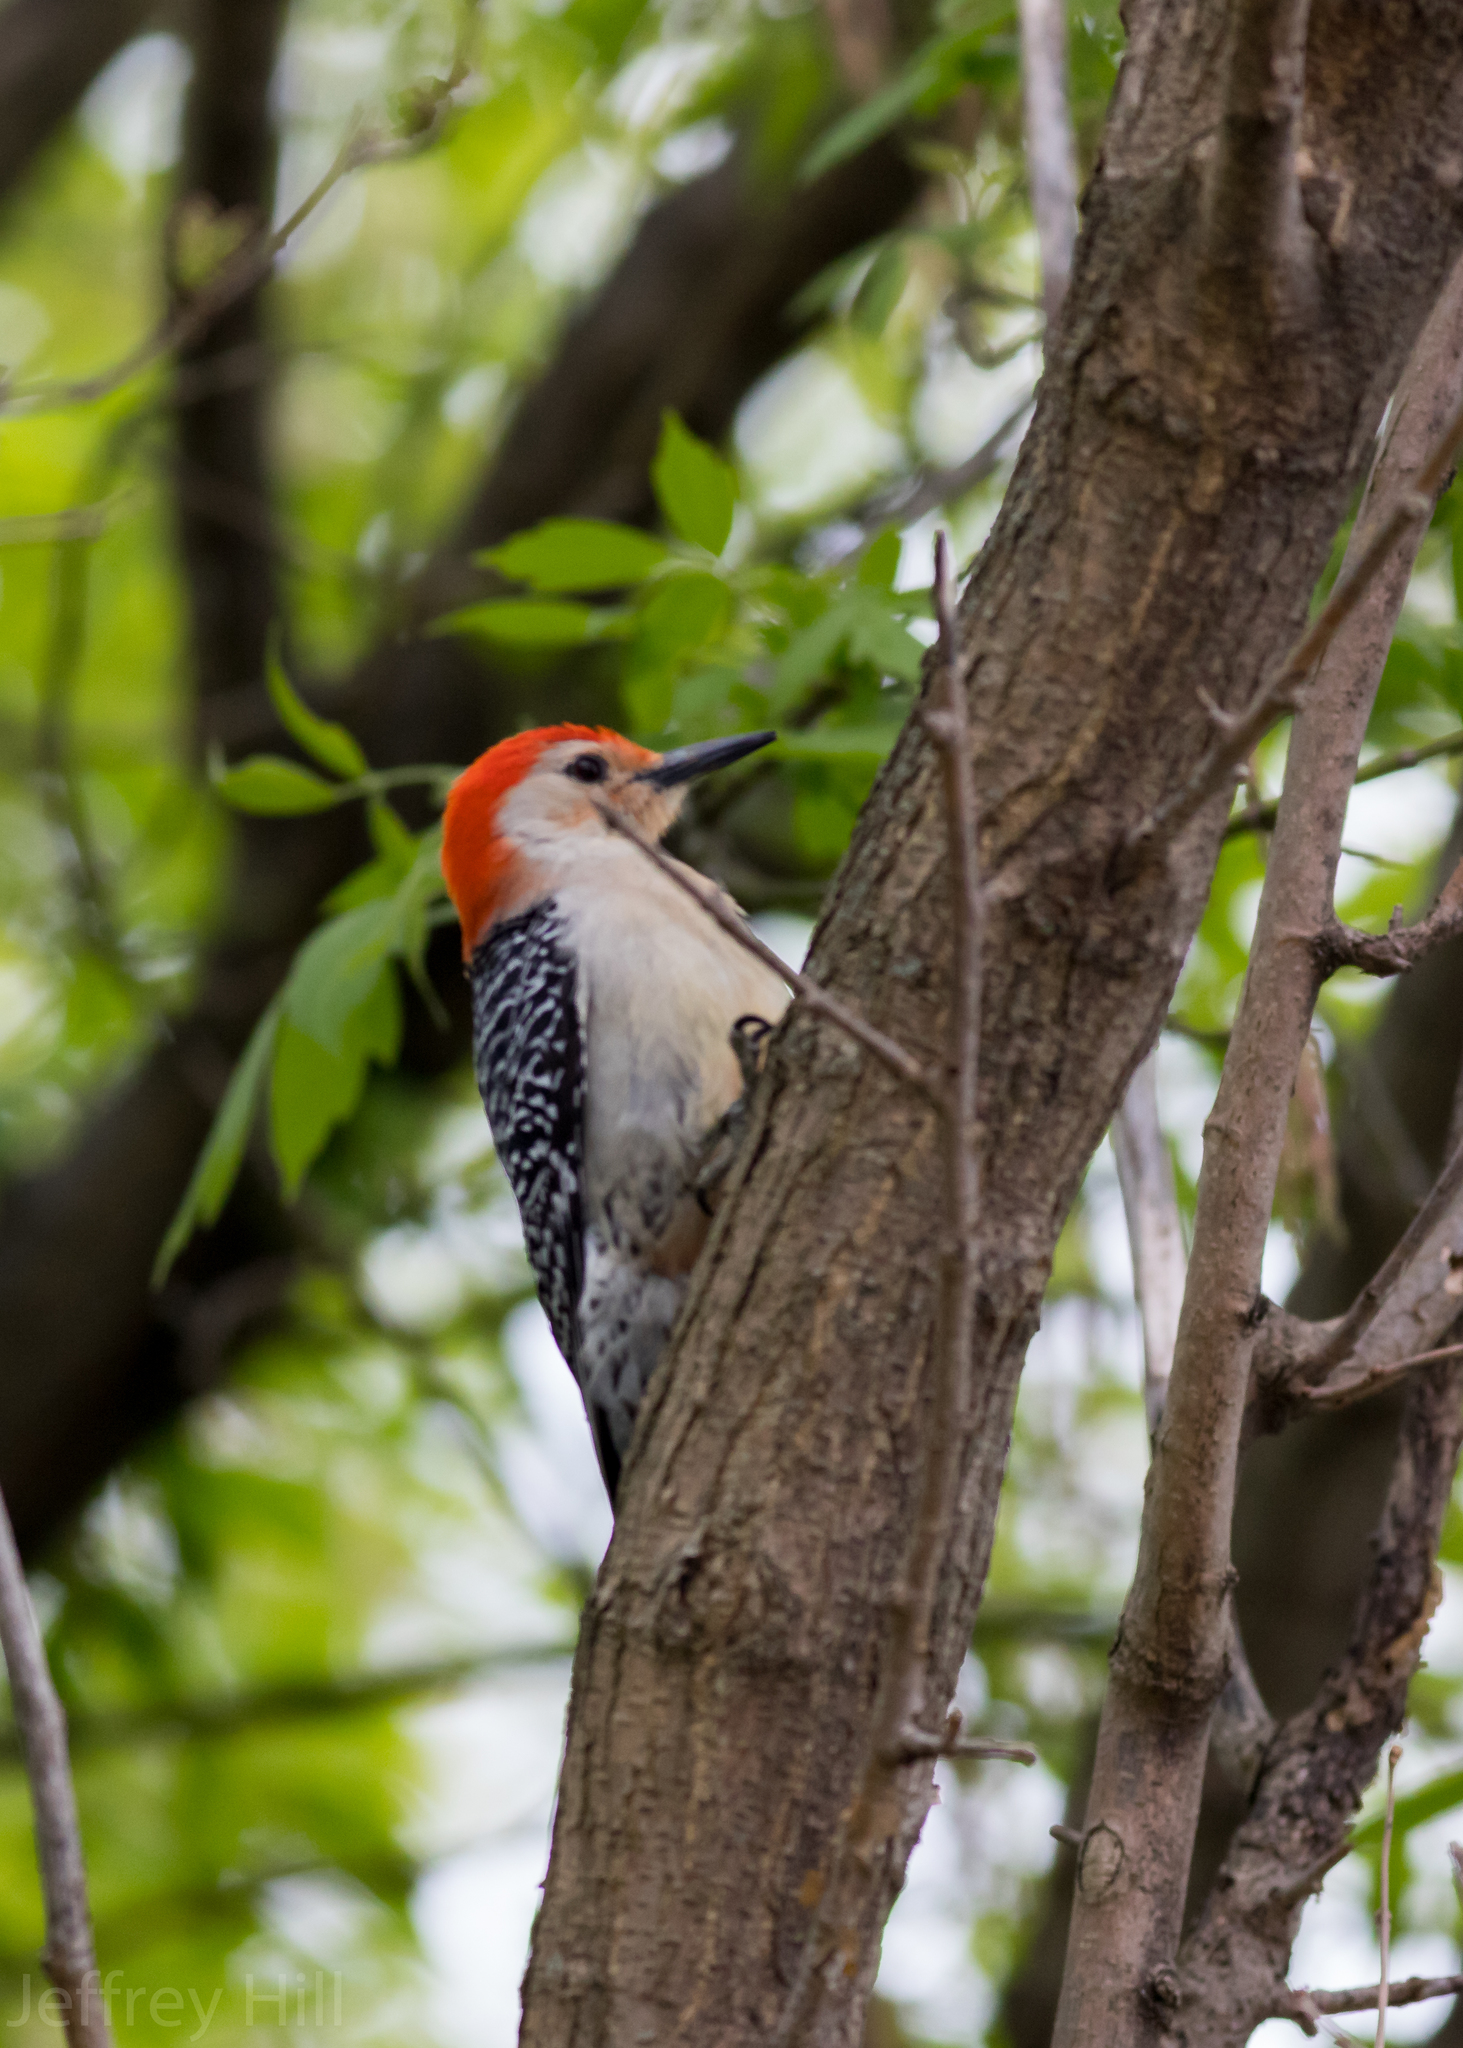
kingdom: Animalia
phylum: Chordata
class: Aves
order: Piciformes
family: Picidae
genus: Melanerpes
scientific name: Melanerpes carolinus
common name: Red-bellied woodpecker
